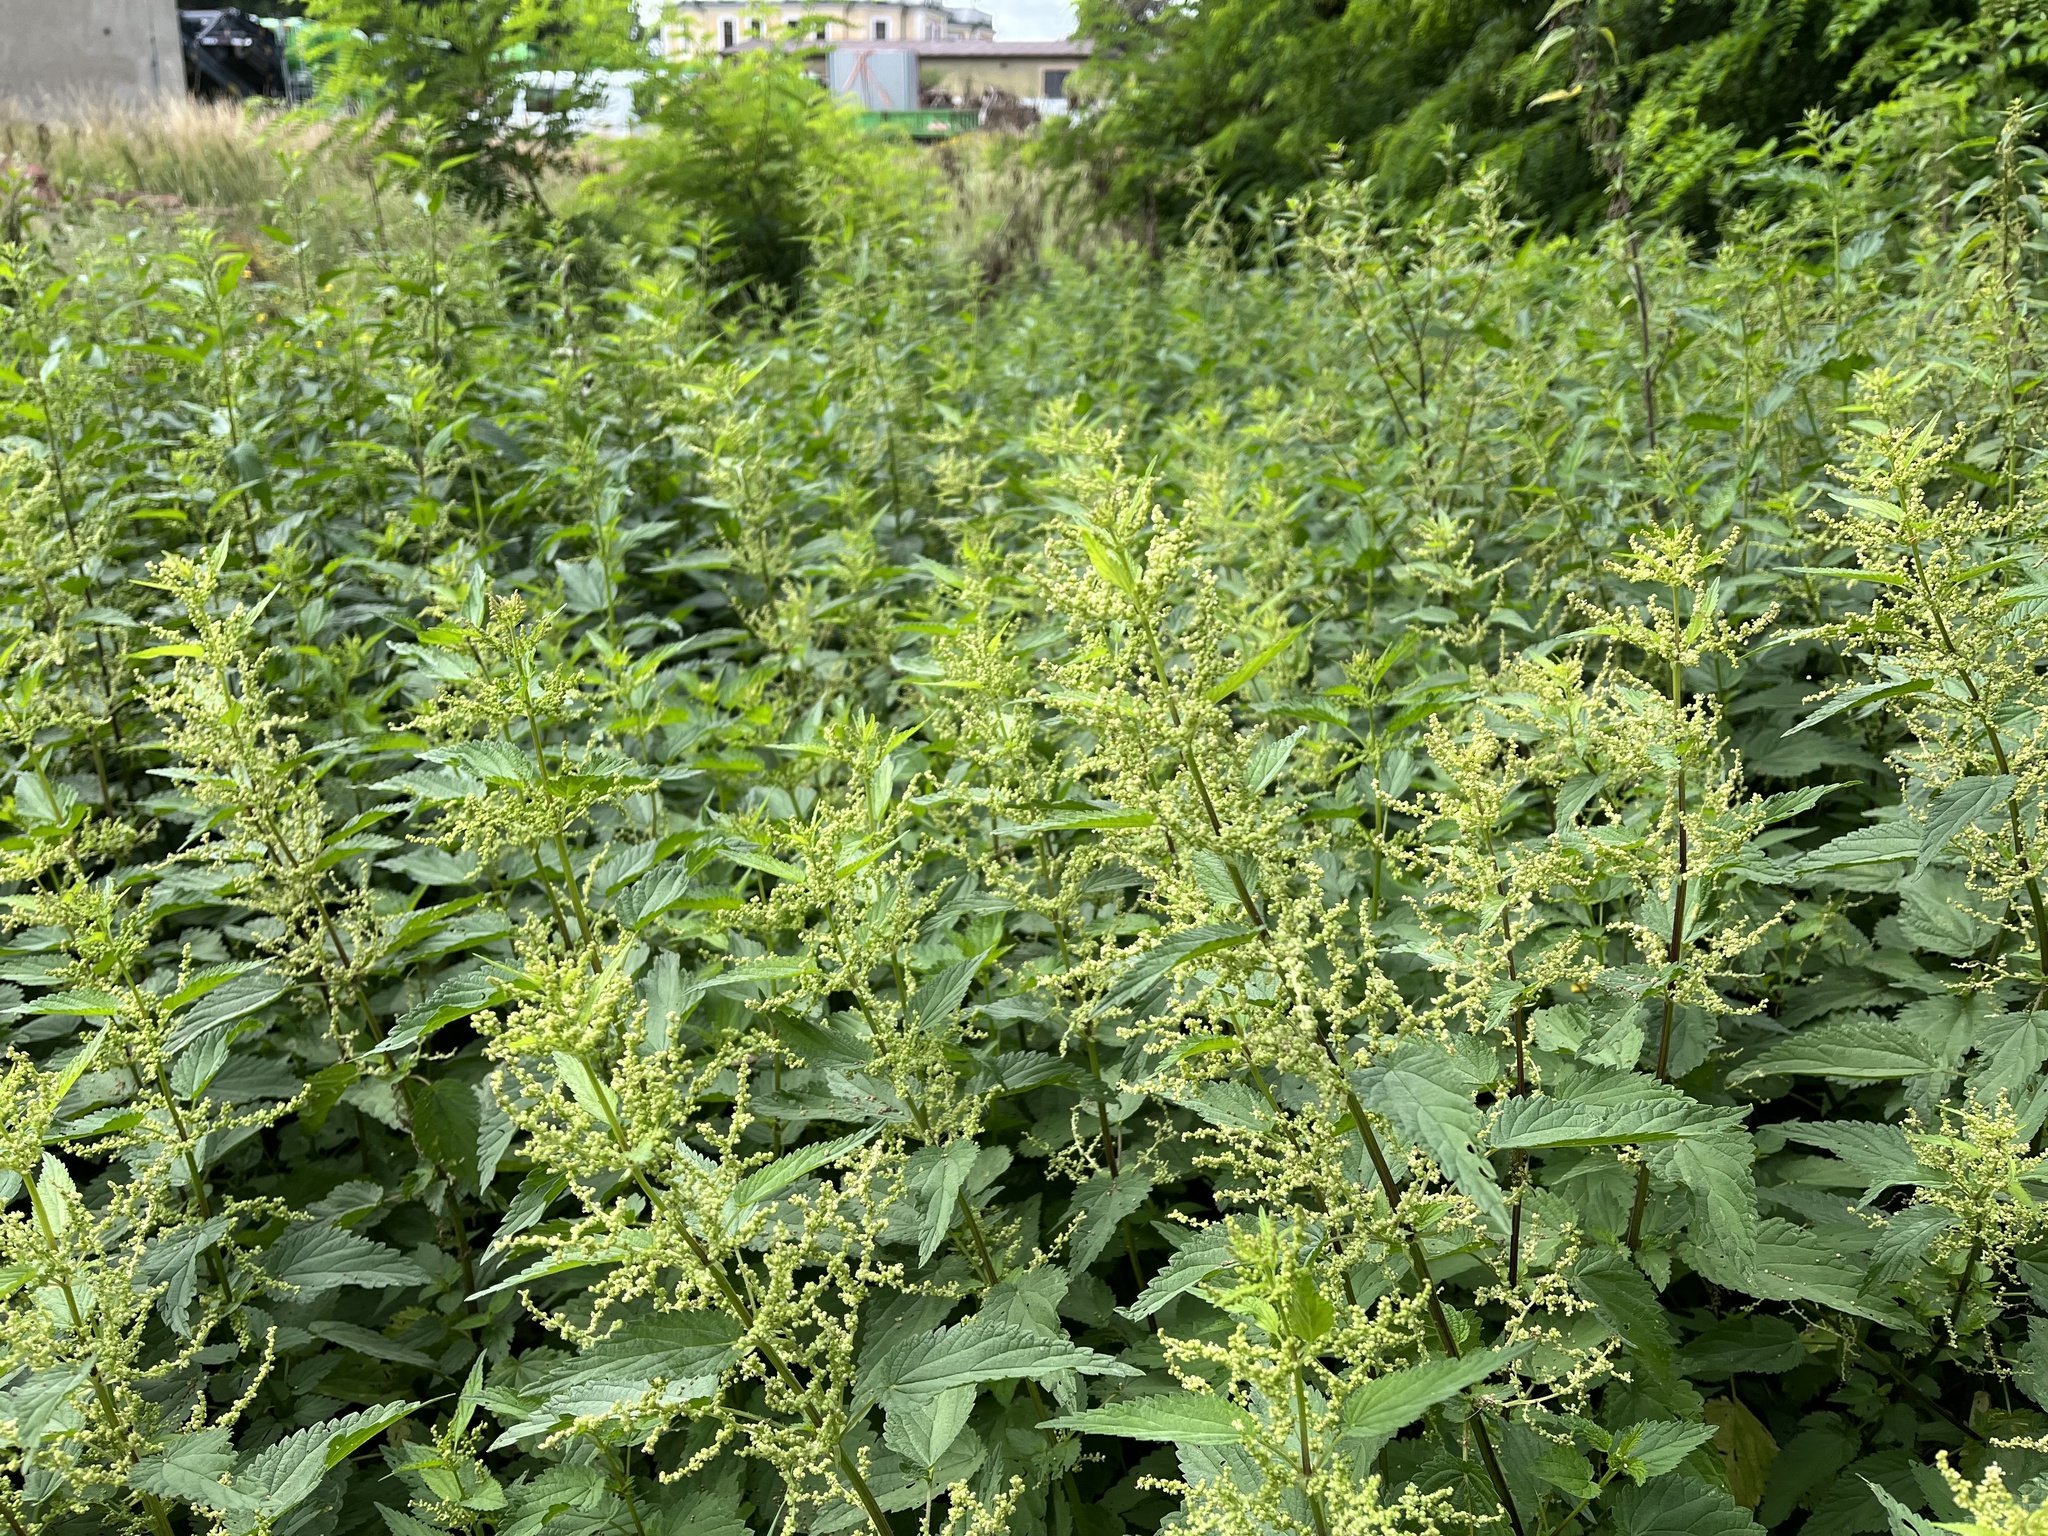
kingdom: Plantae
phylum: Tracheophyta
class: Magnoliopsida
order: Rosales
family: Urticaceae
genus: Urtica
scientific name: Urtica dioica
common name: Common nettle
